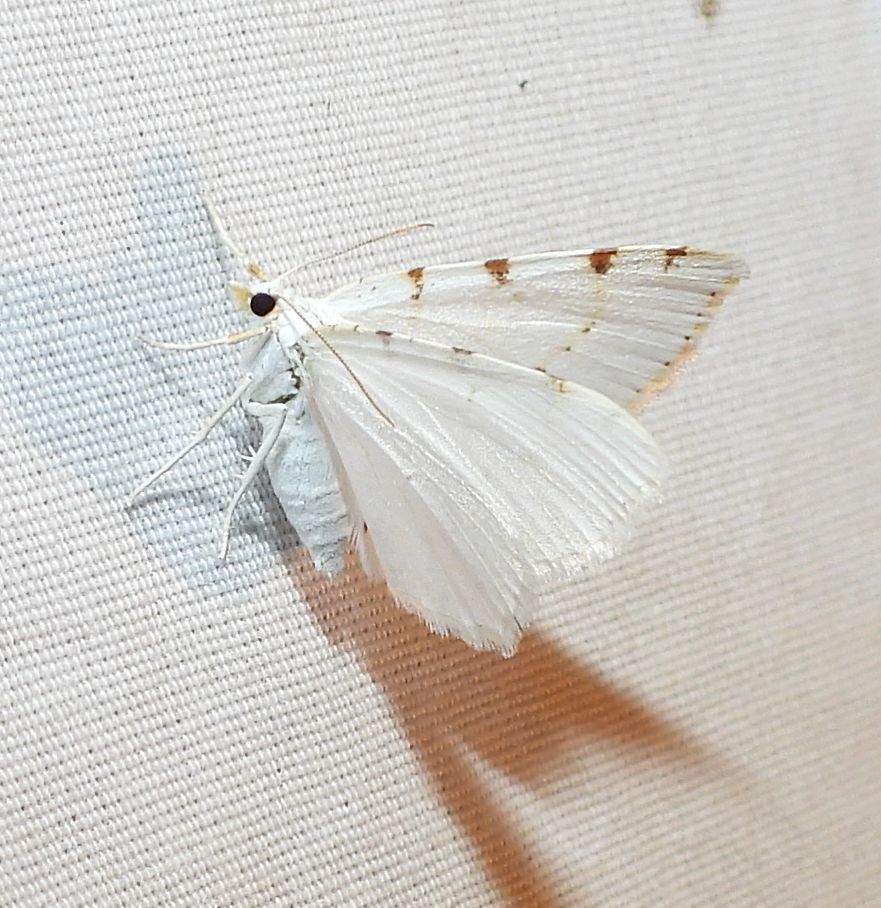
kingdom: Animalia
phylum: Arthropoda
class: Insecta
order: Lepidoptera
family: Geometridae
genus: Macaria
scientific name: Macaria pustularia
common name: Lesser maple spanworm moth
